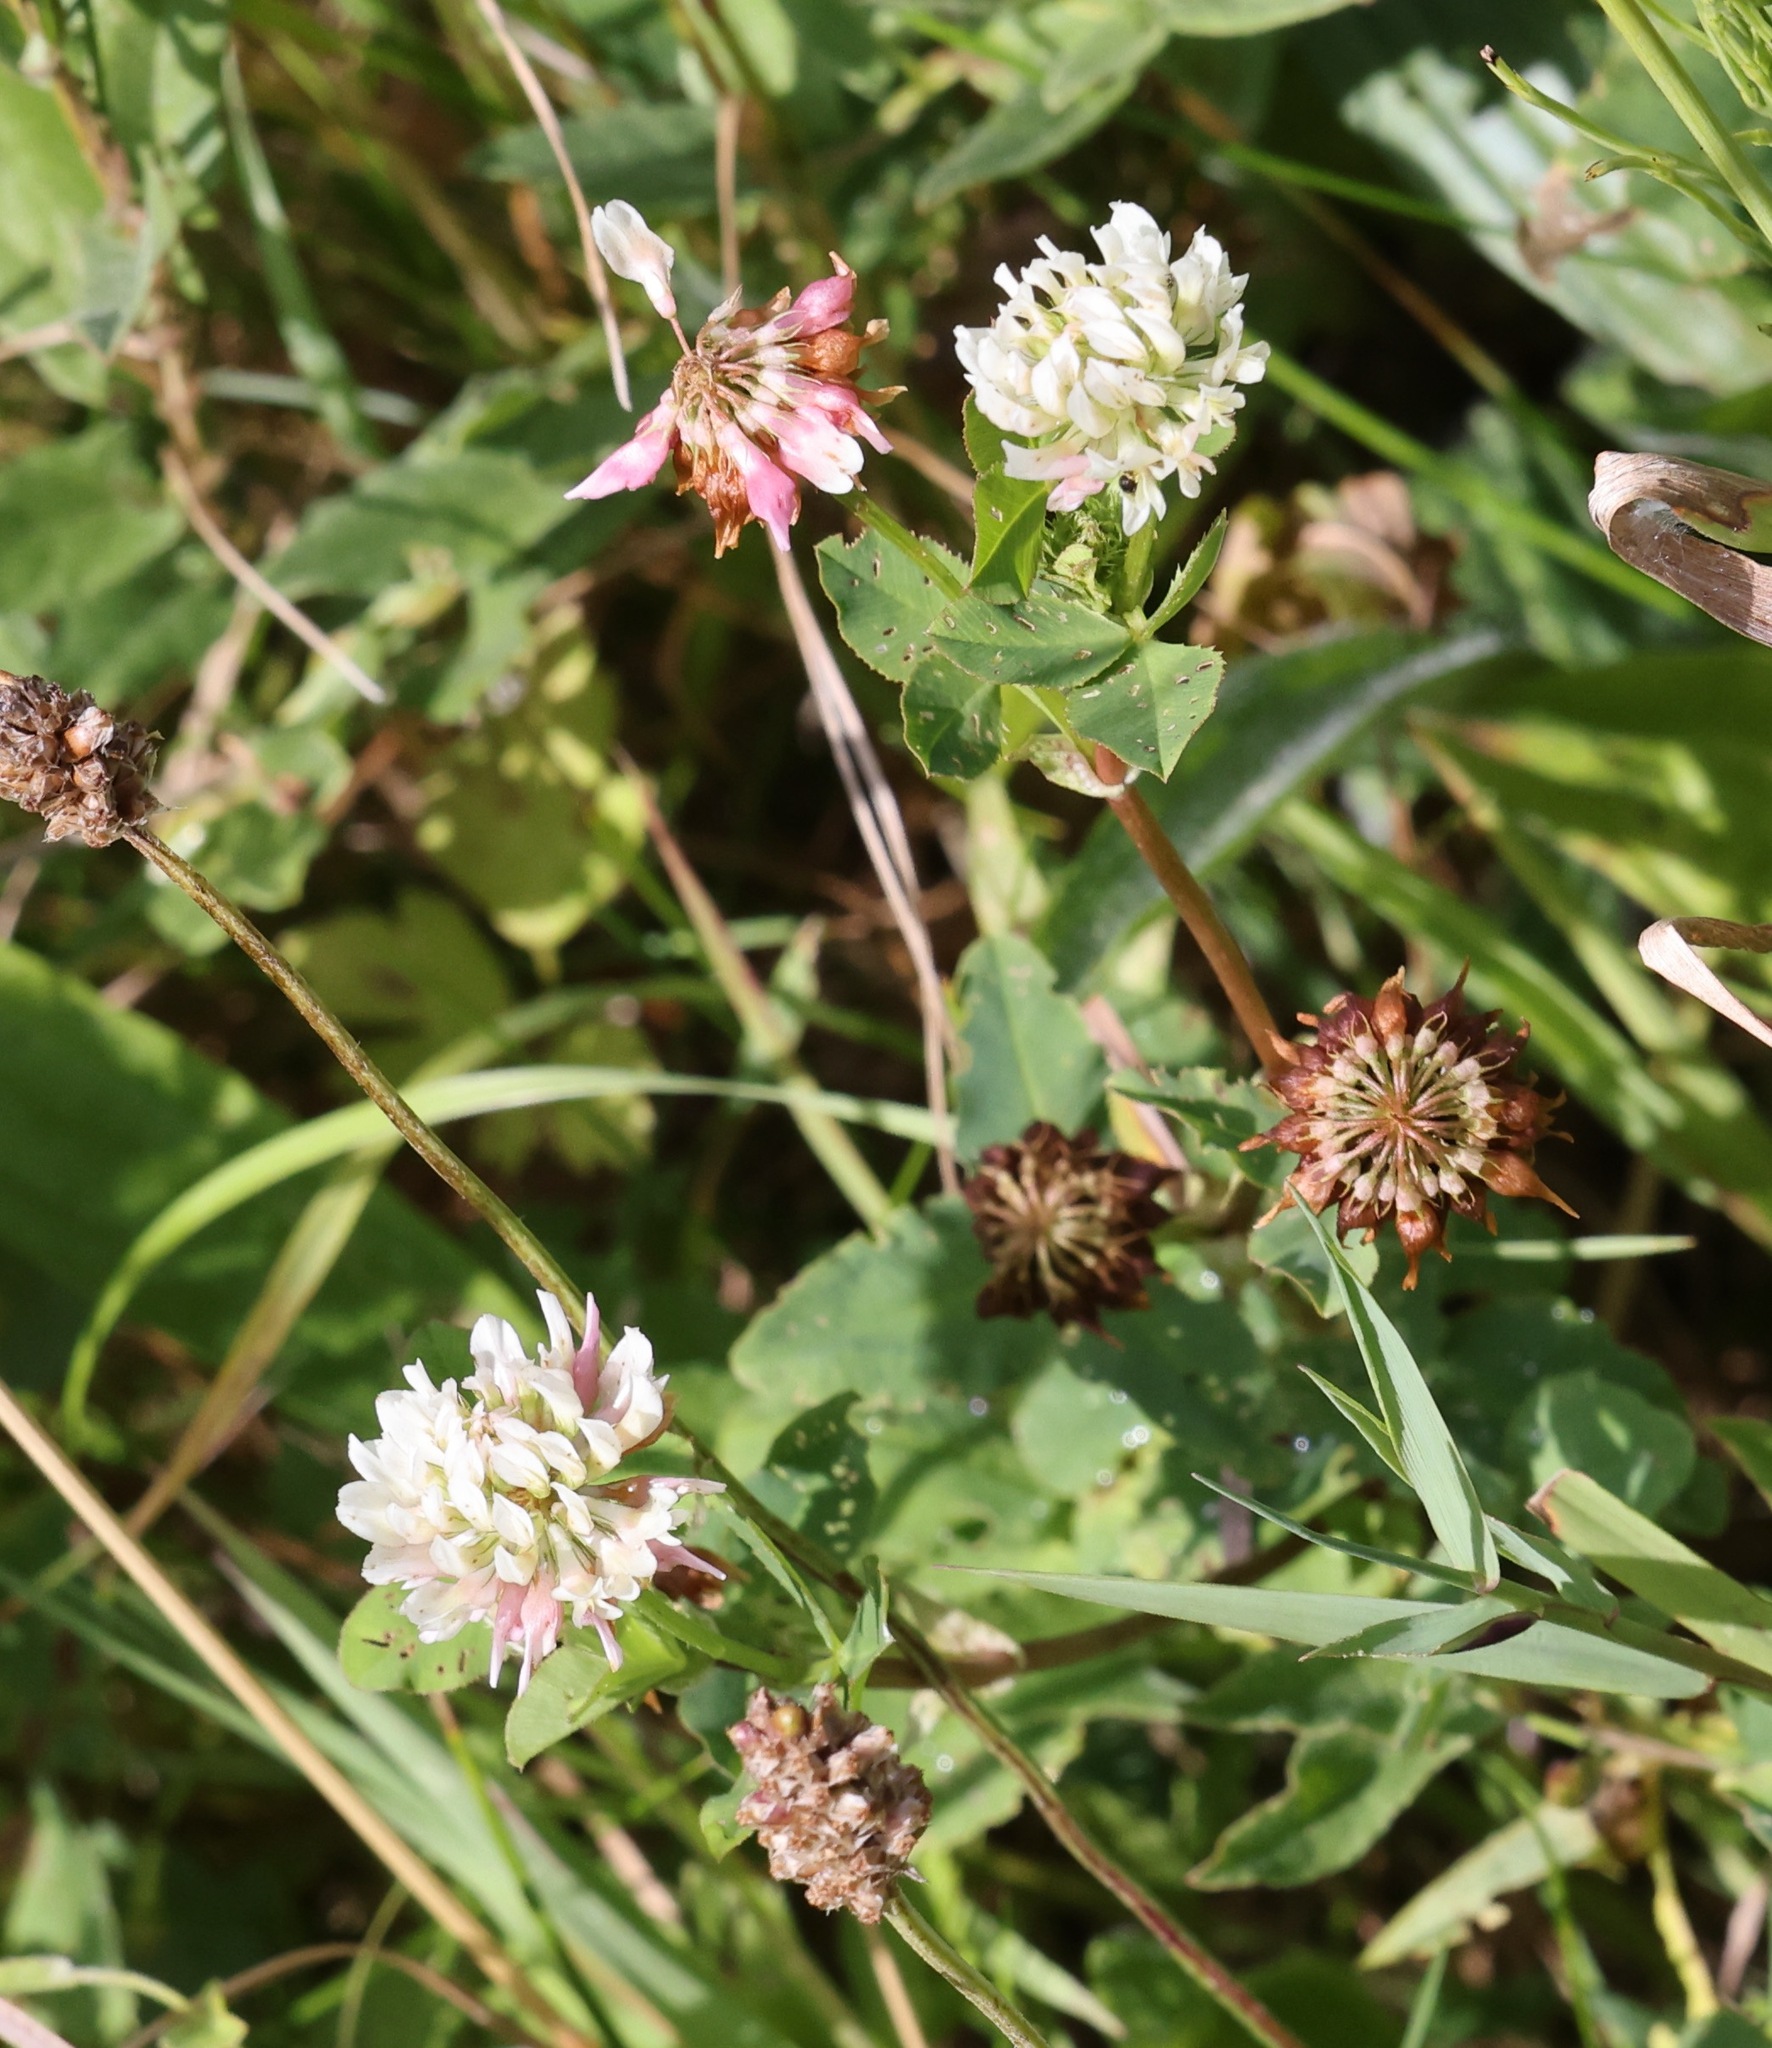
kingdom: Plantae
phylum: Tracheophyta
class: Magnoliopsida
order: Fabales
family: Fabaceae
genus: Trifolium
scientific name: Trifolium repens
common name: White clover
